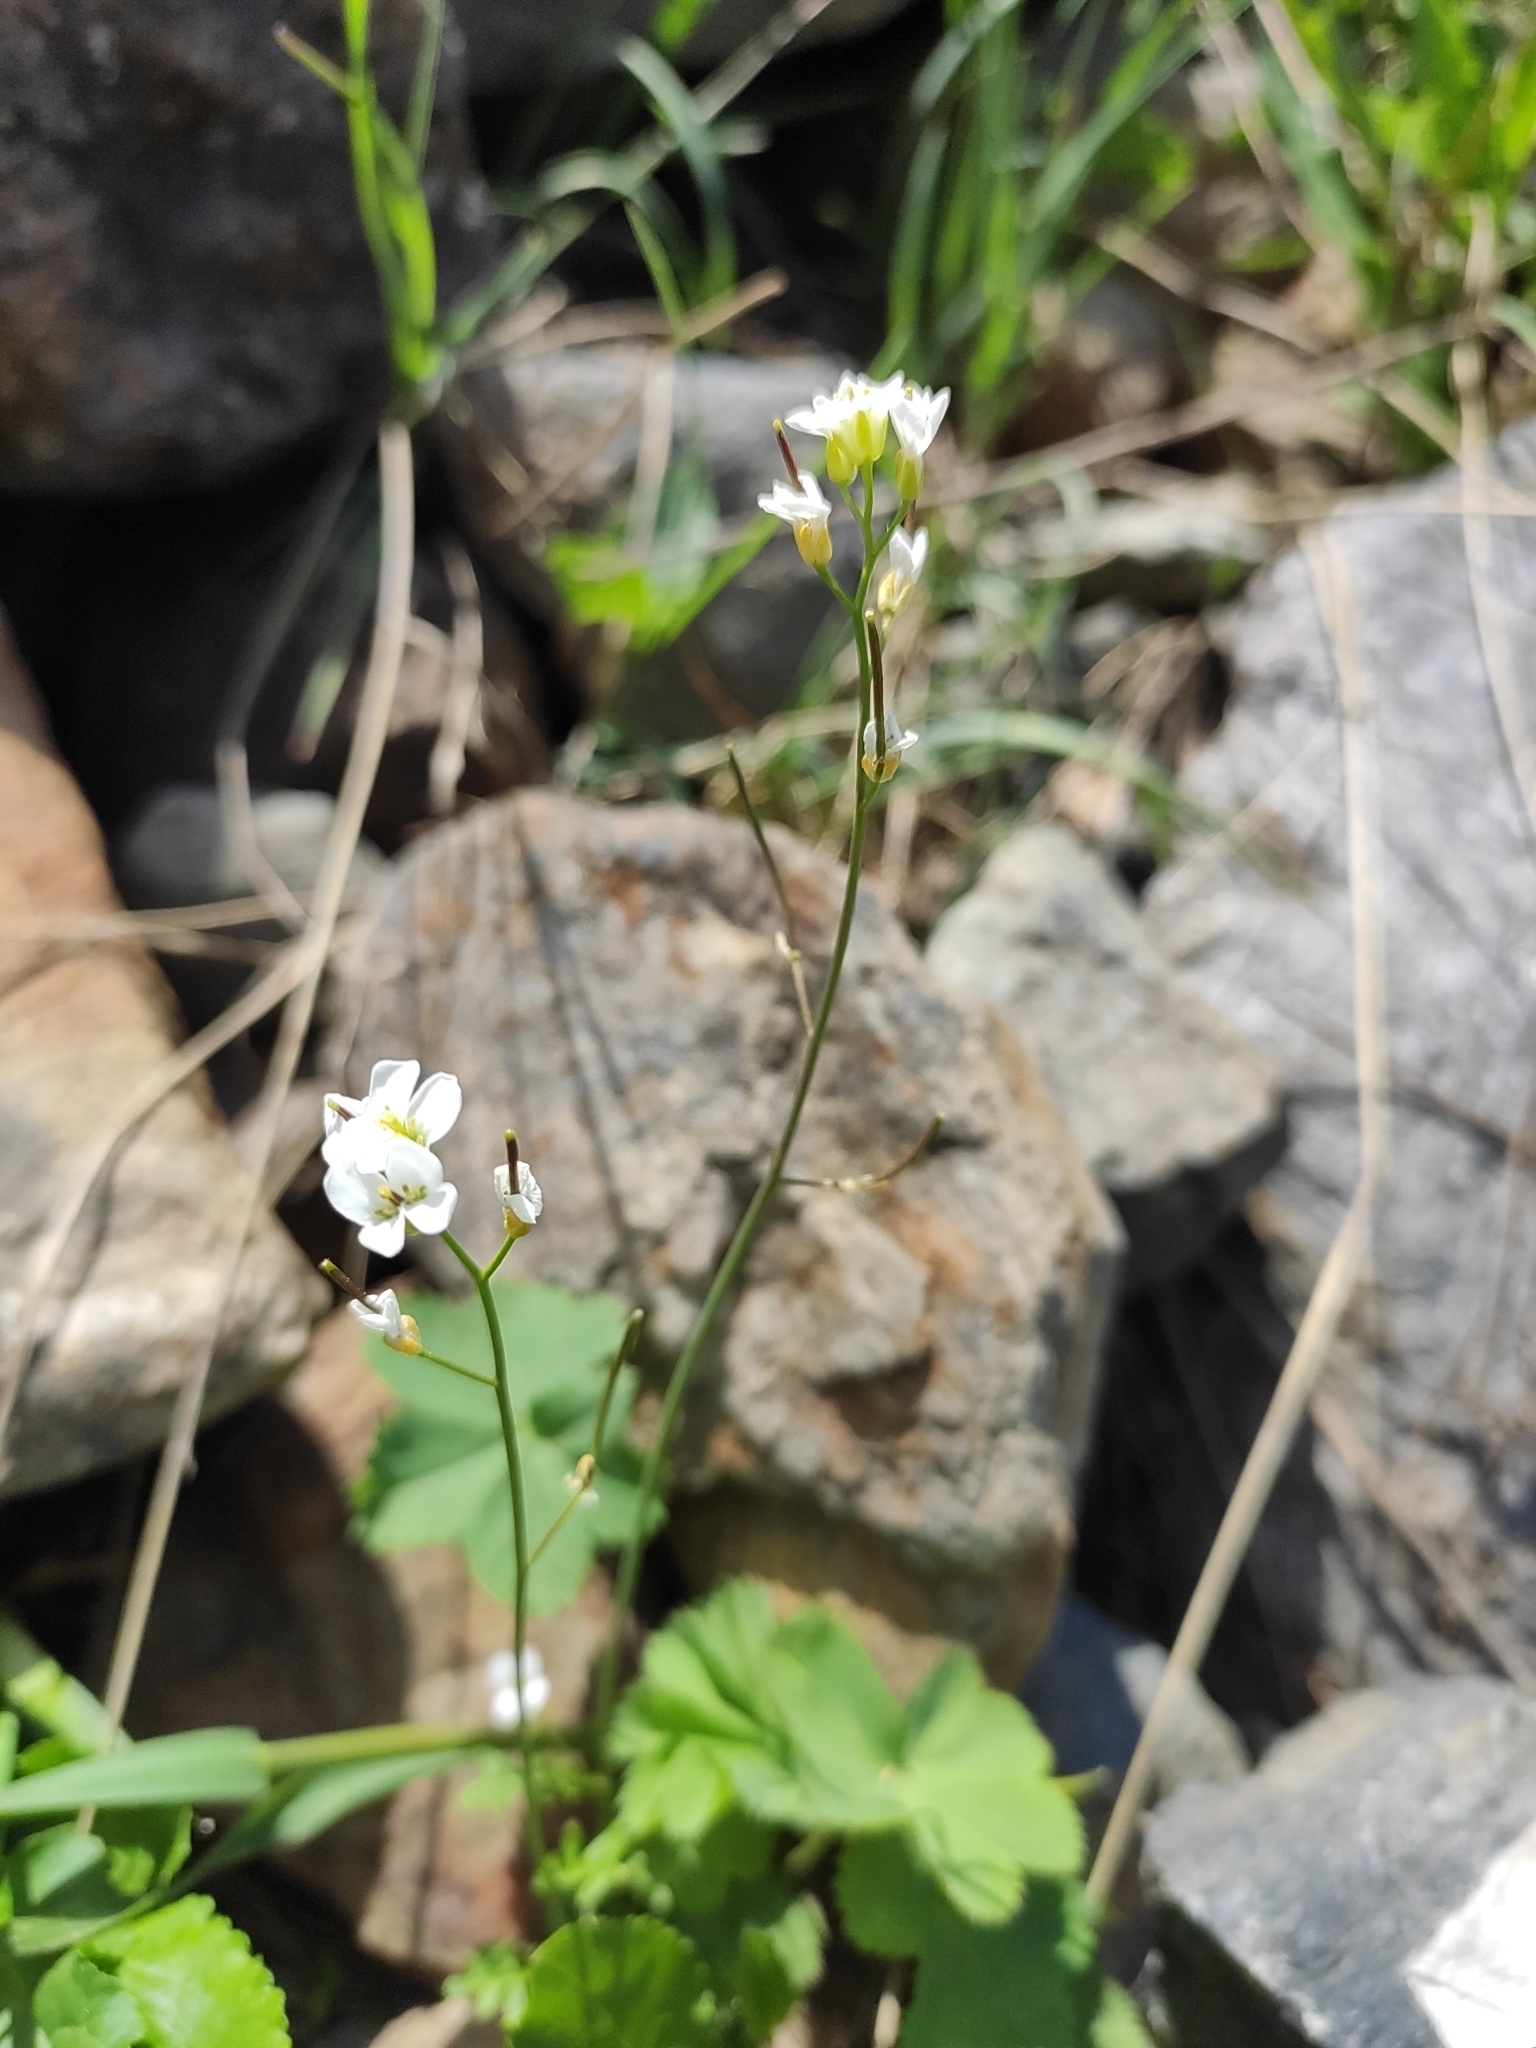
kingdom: Plantae
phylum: Tracheophyta
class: Magnoliopsida
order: Brassicales
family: Brassicaceae
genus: Murbeckiella
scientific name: Murbeckiella huetii
